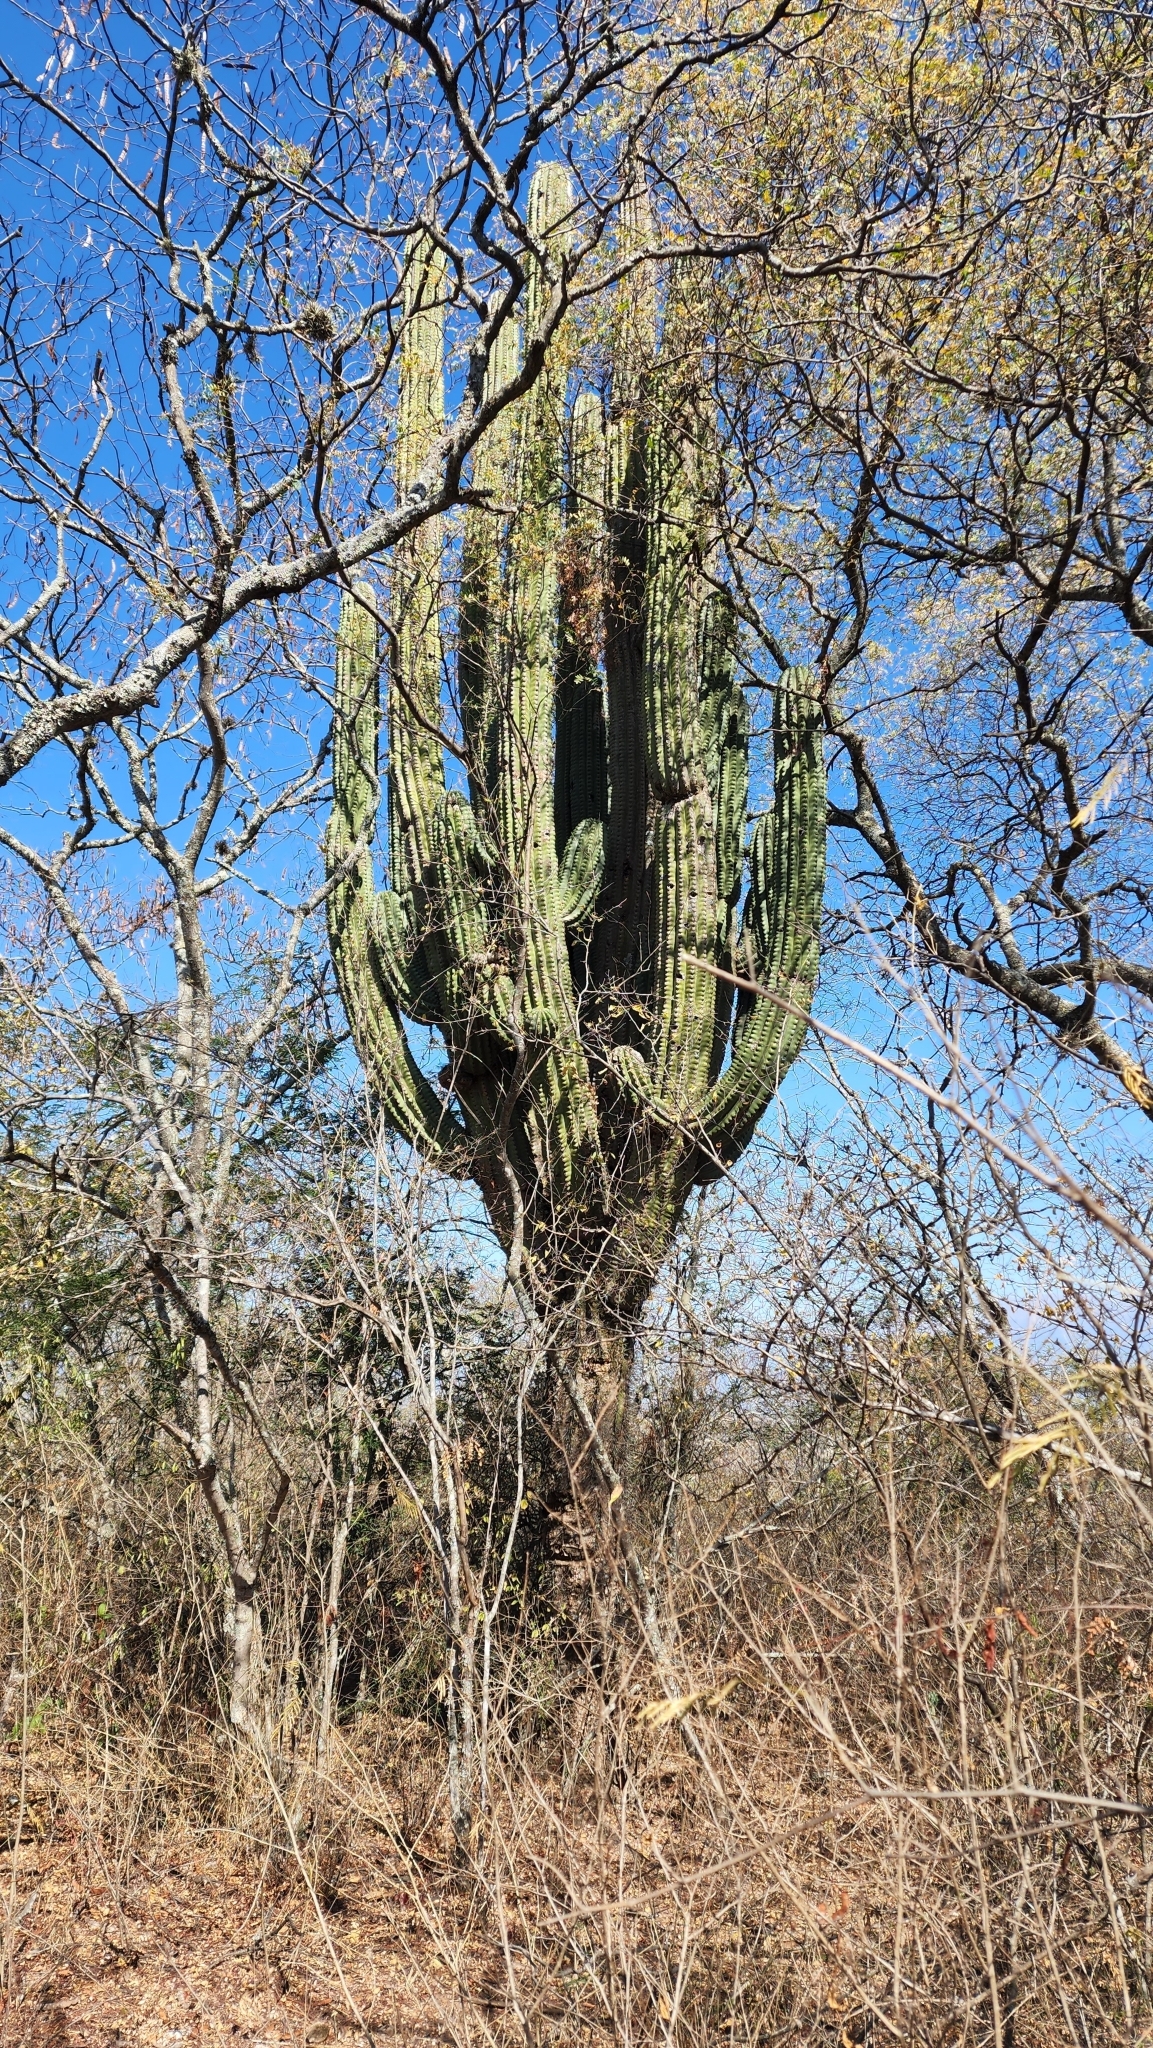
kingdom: Plantae
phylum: Tracheophyta
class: Magnoliopsida
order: Caryophyllales
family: Cactaceae
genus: Leucostele
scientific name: Leucostele terscheckii
